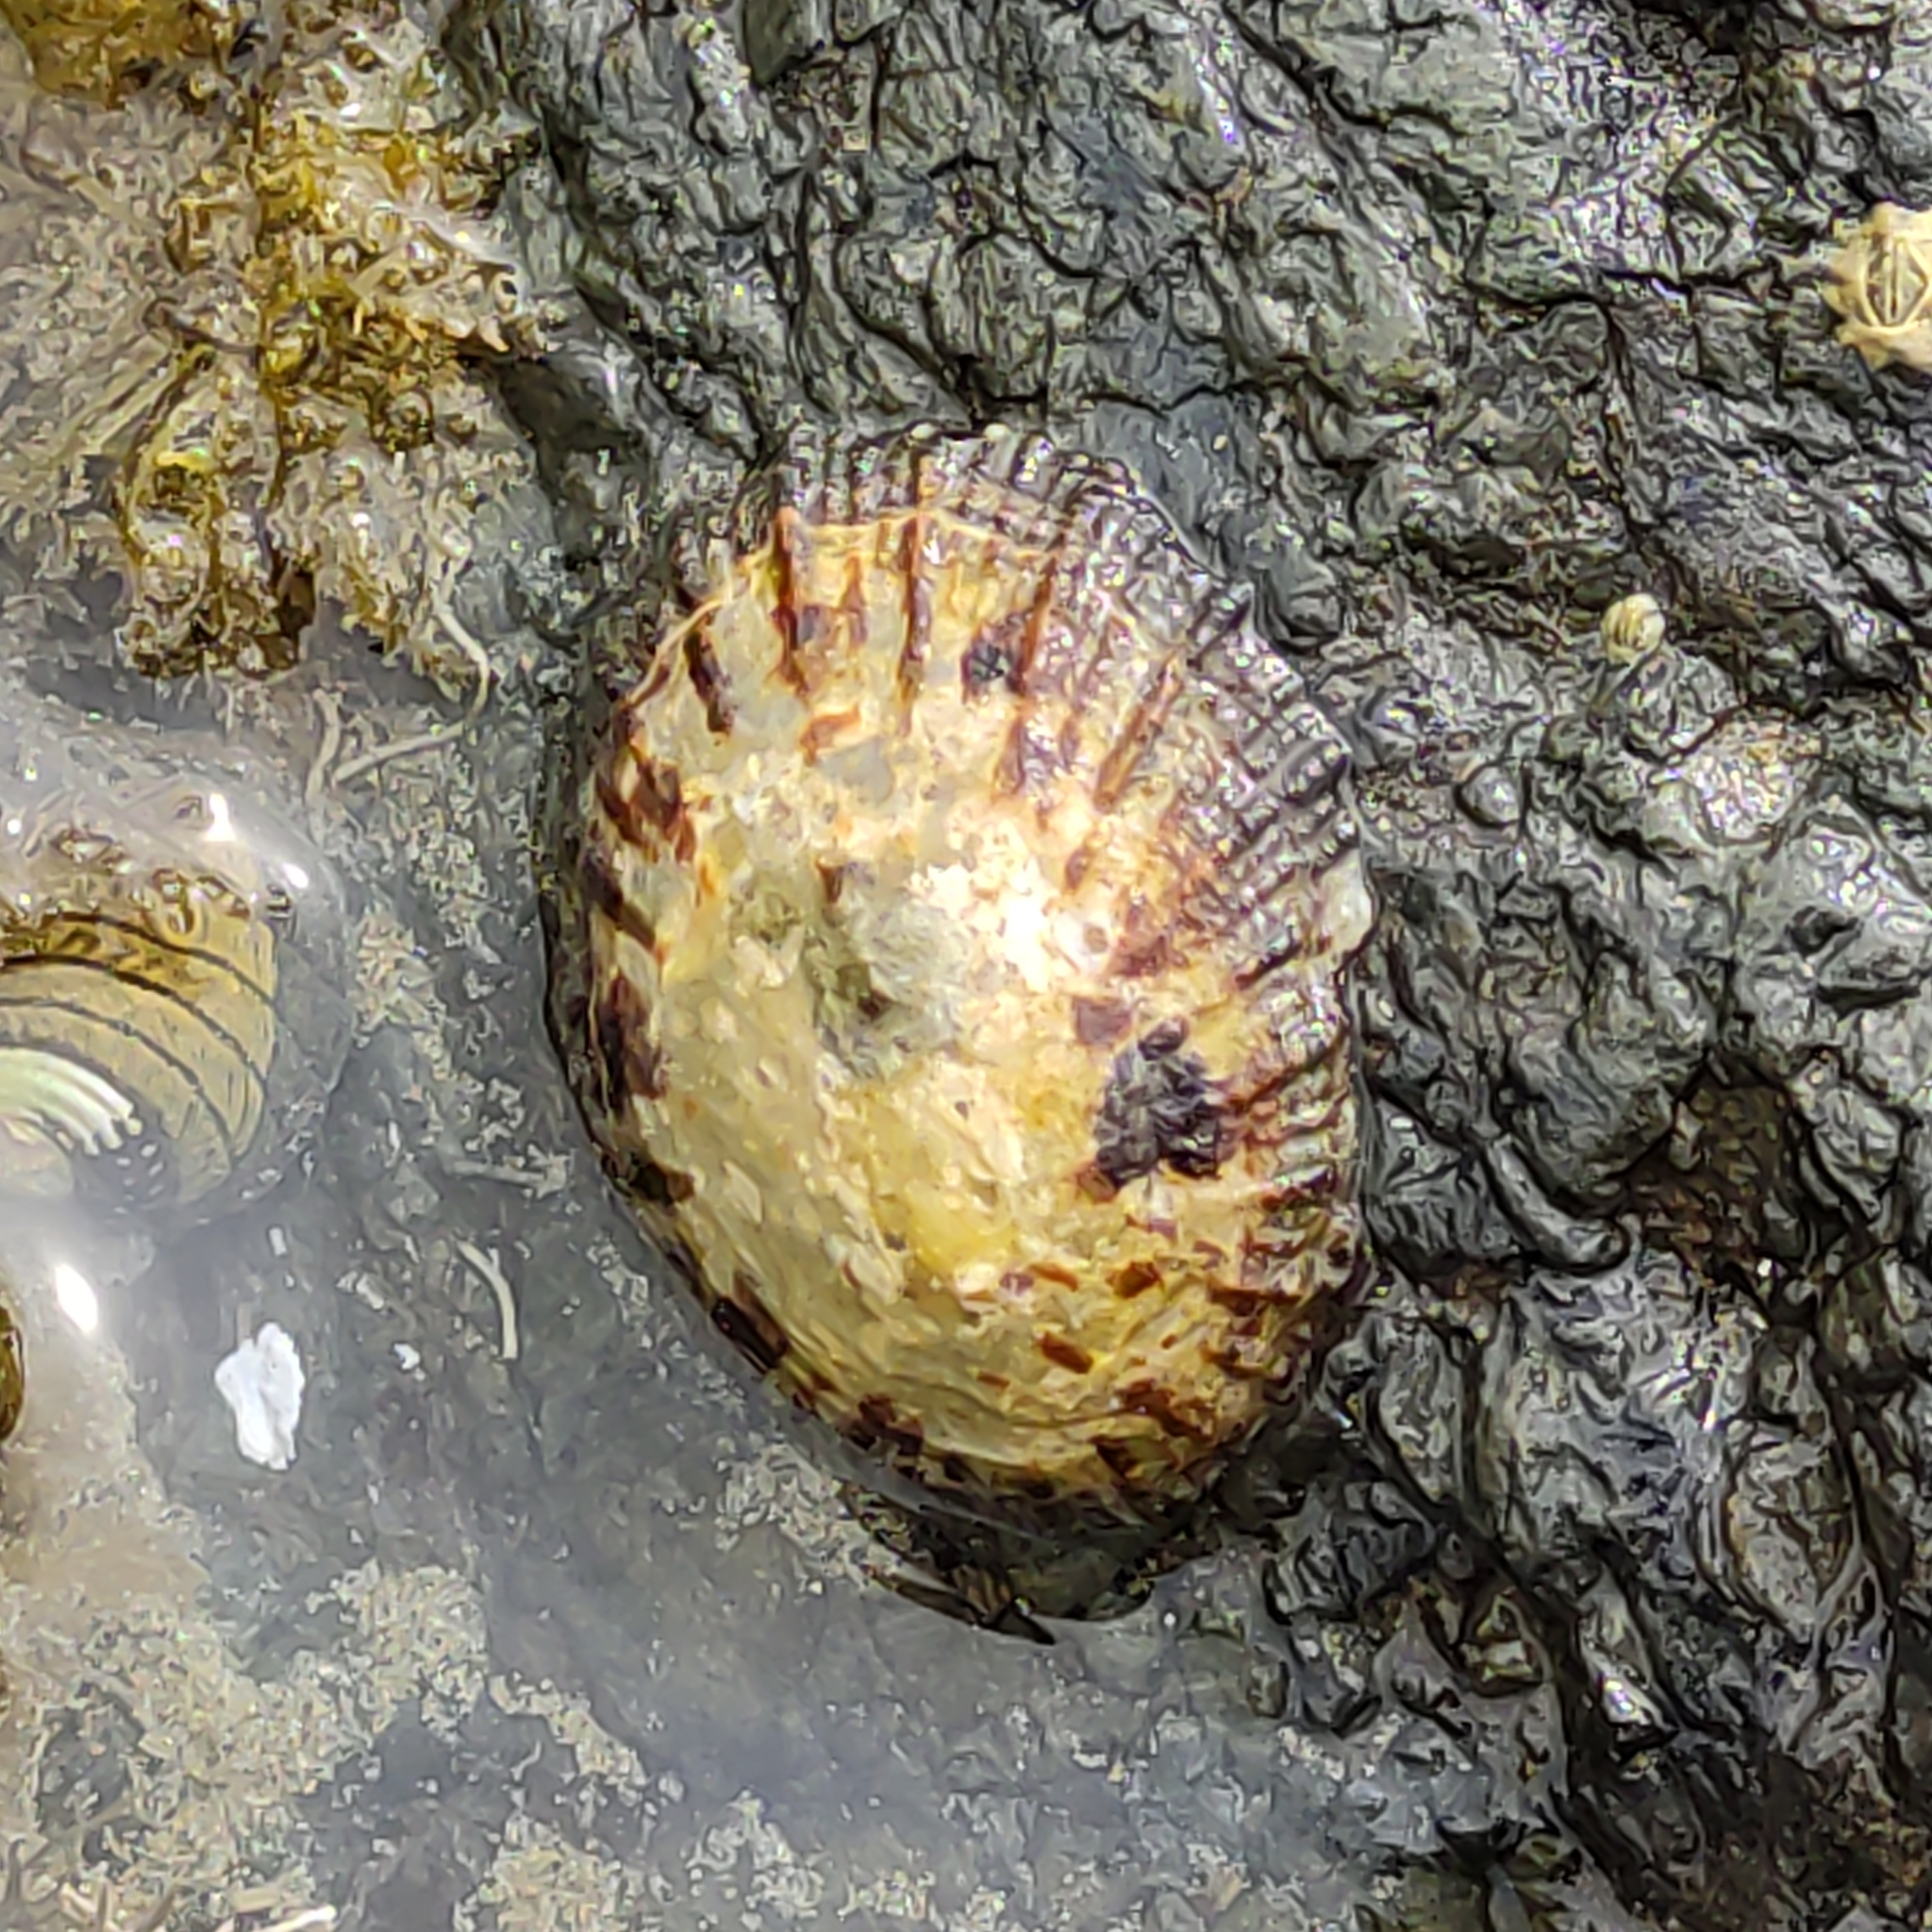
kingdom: Animalia
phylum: Mollusca
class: Gastropoda
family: Nacellidae
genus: Cellana
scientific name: Cellana strigilis
